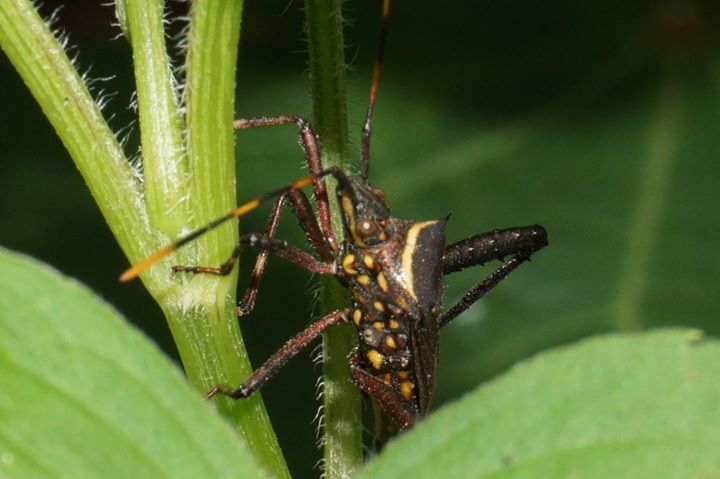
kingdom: Animalia
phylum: Arthropoda
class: Insecta
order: Hemiptera
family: Coreidae
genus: Leptoglossus
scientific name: Leptoglossus gonagra
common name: Citron bug
